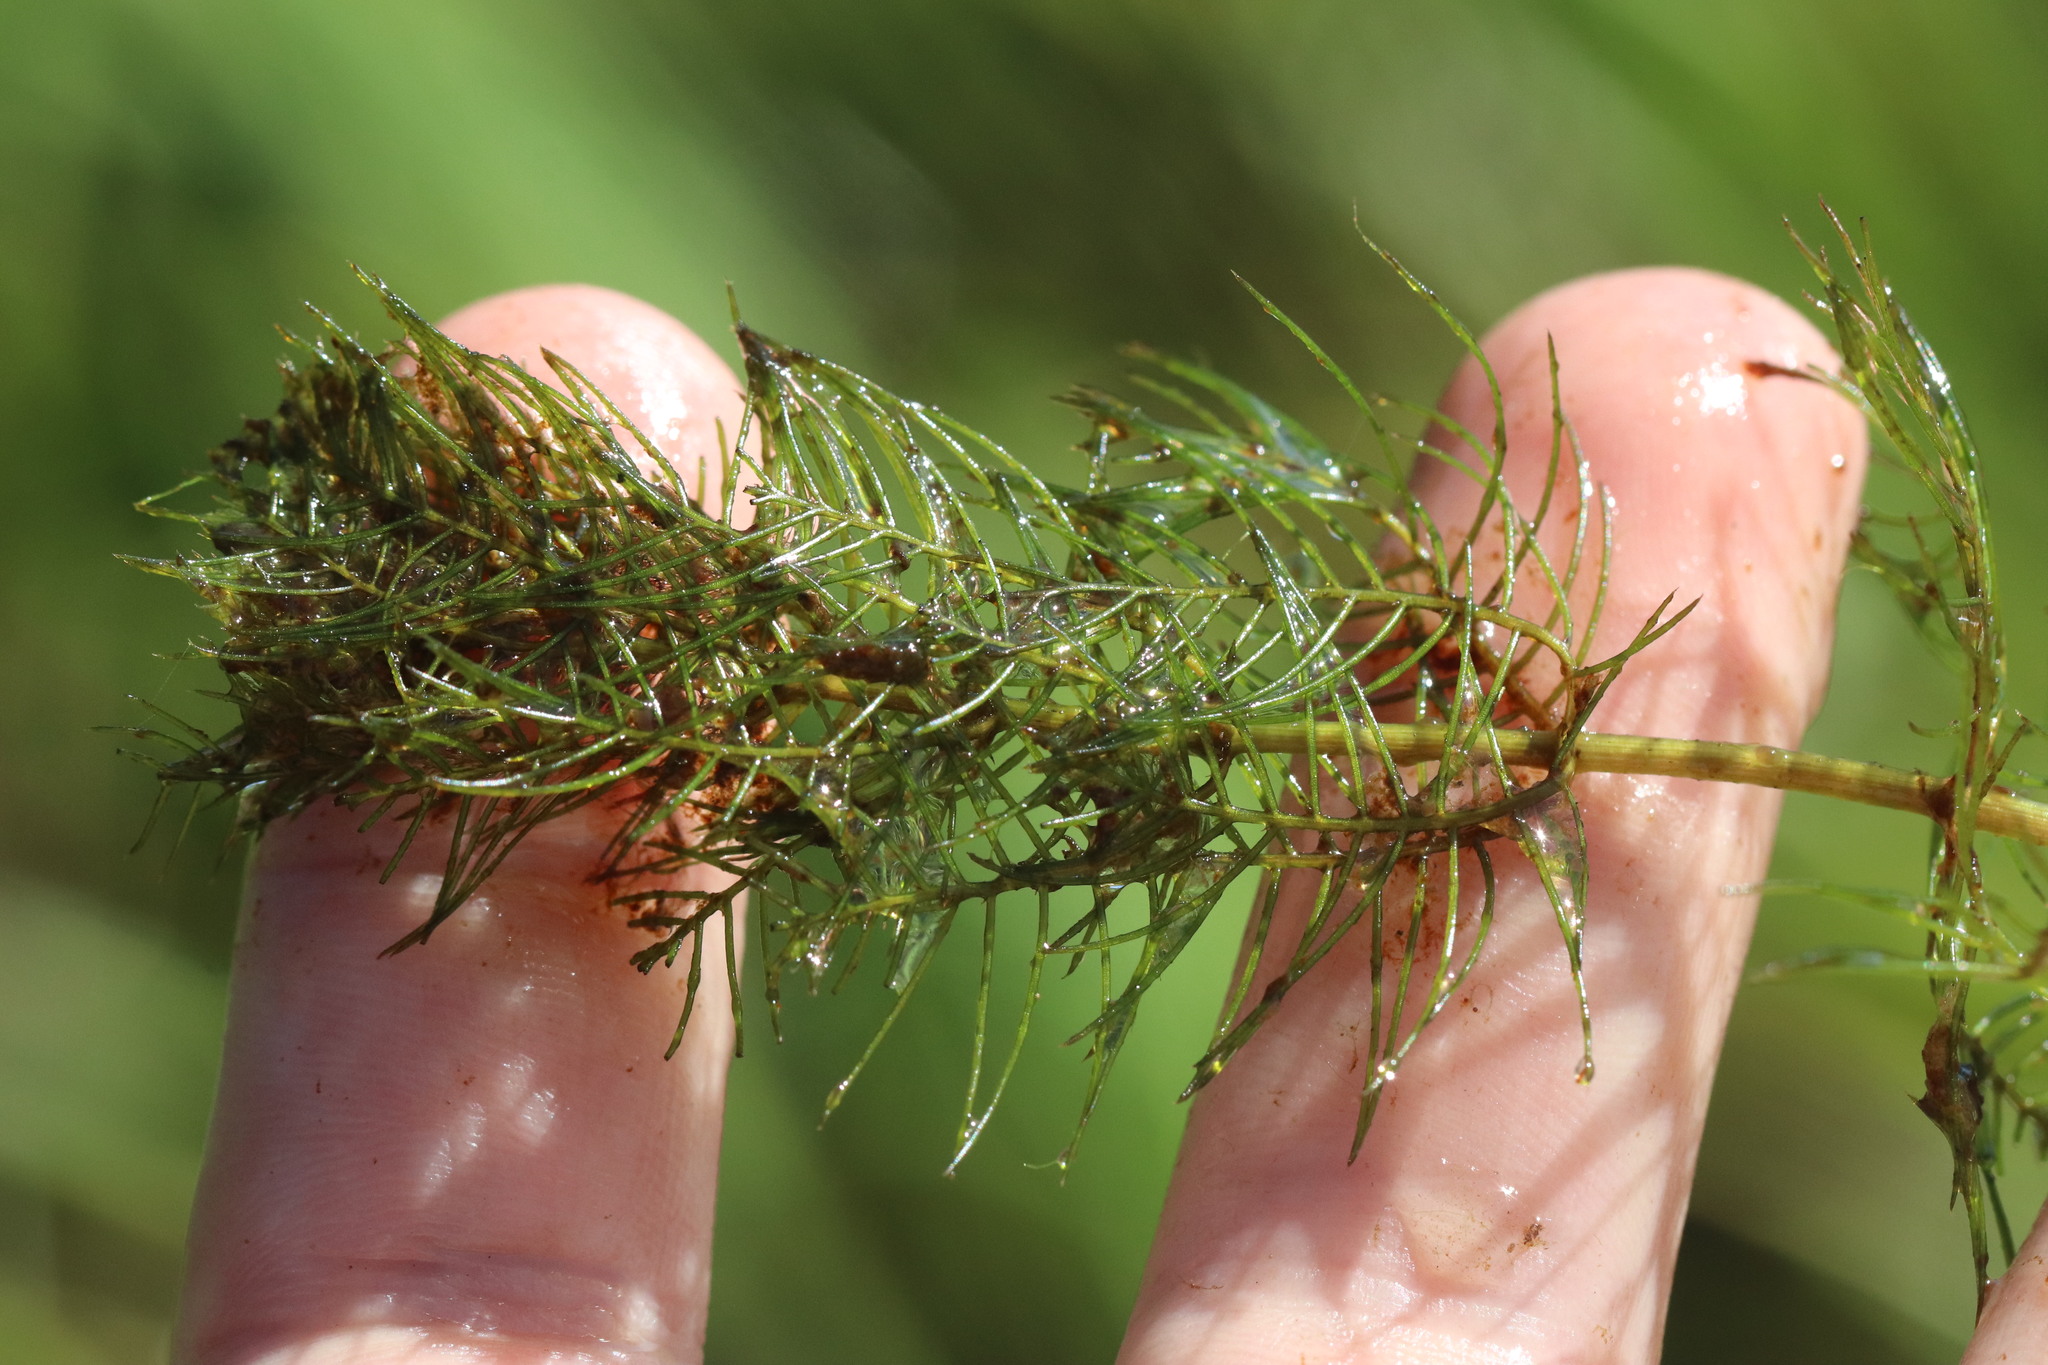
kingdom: Plantae
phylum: Tracheophyta
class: Magnoliopsida
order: Saxifragales
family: Haloragaceae
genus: Myriophyllum
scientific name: Myriophyllum sibiricum
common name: Siberian water-milfoil
